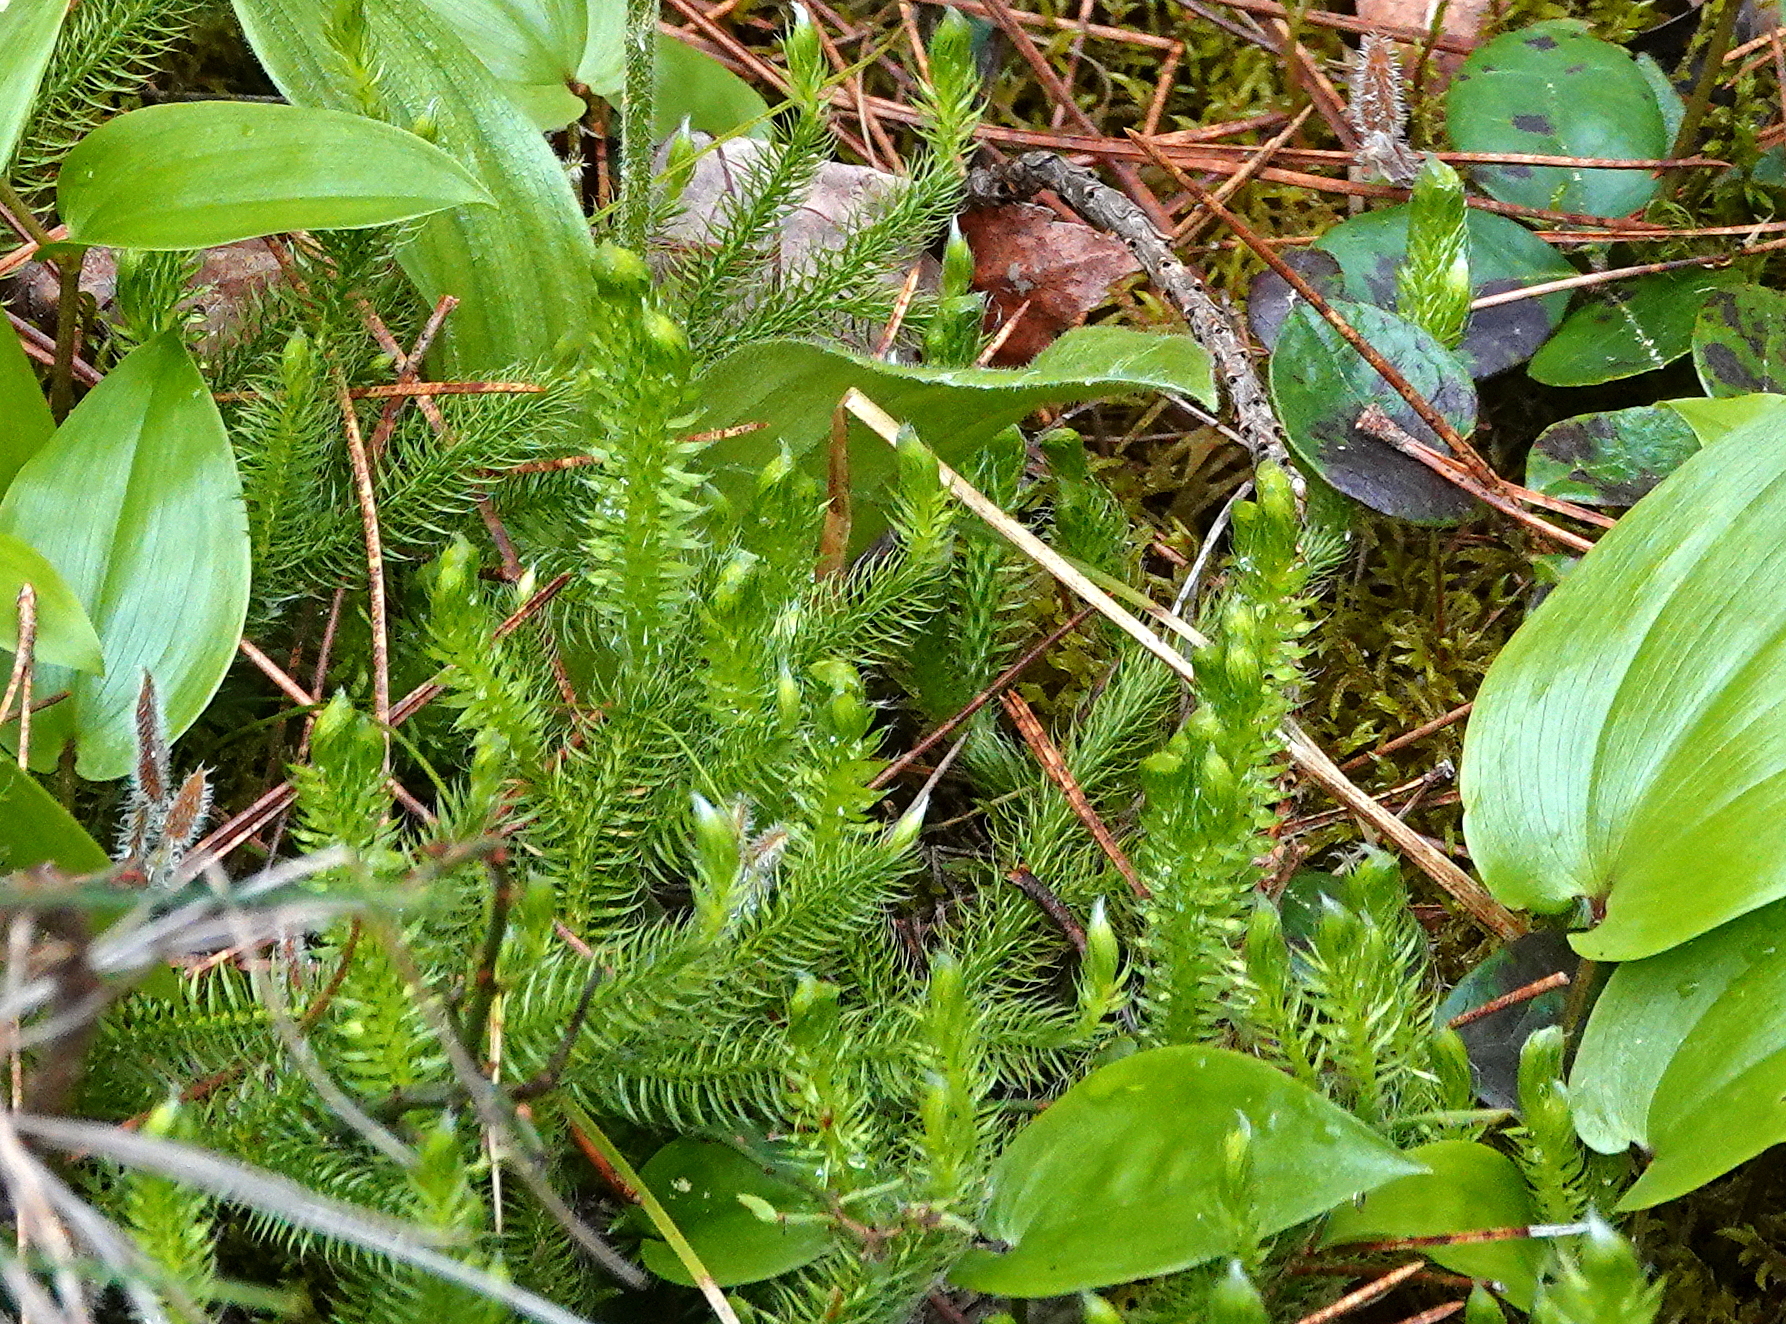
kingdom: Plantae
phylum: Tracheophyta
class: Lycopodiopsida
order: Lycopodiales
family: Lycopodiaceae
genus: Lycopodium
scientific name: Lycopodium clavatum
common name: Stag's-horn clubmoss
